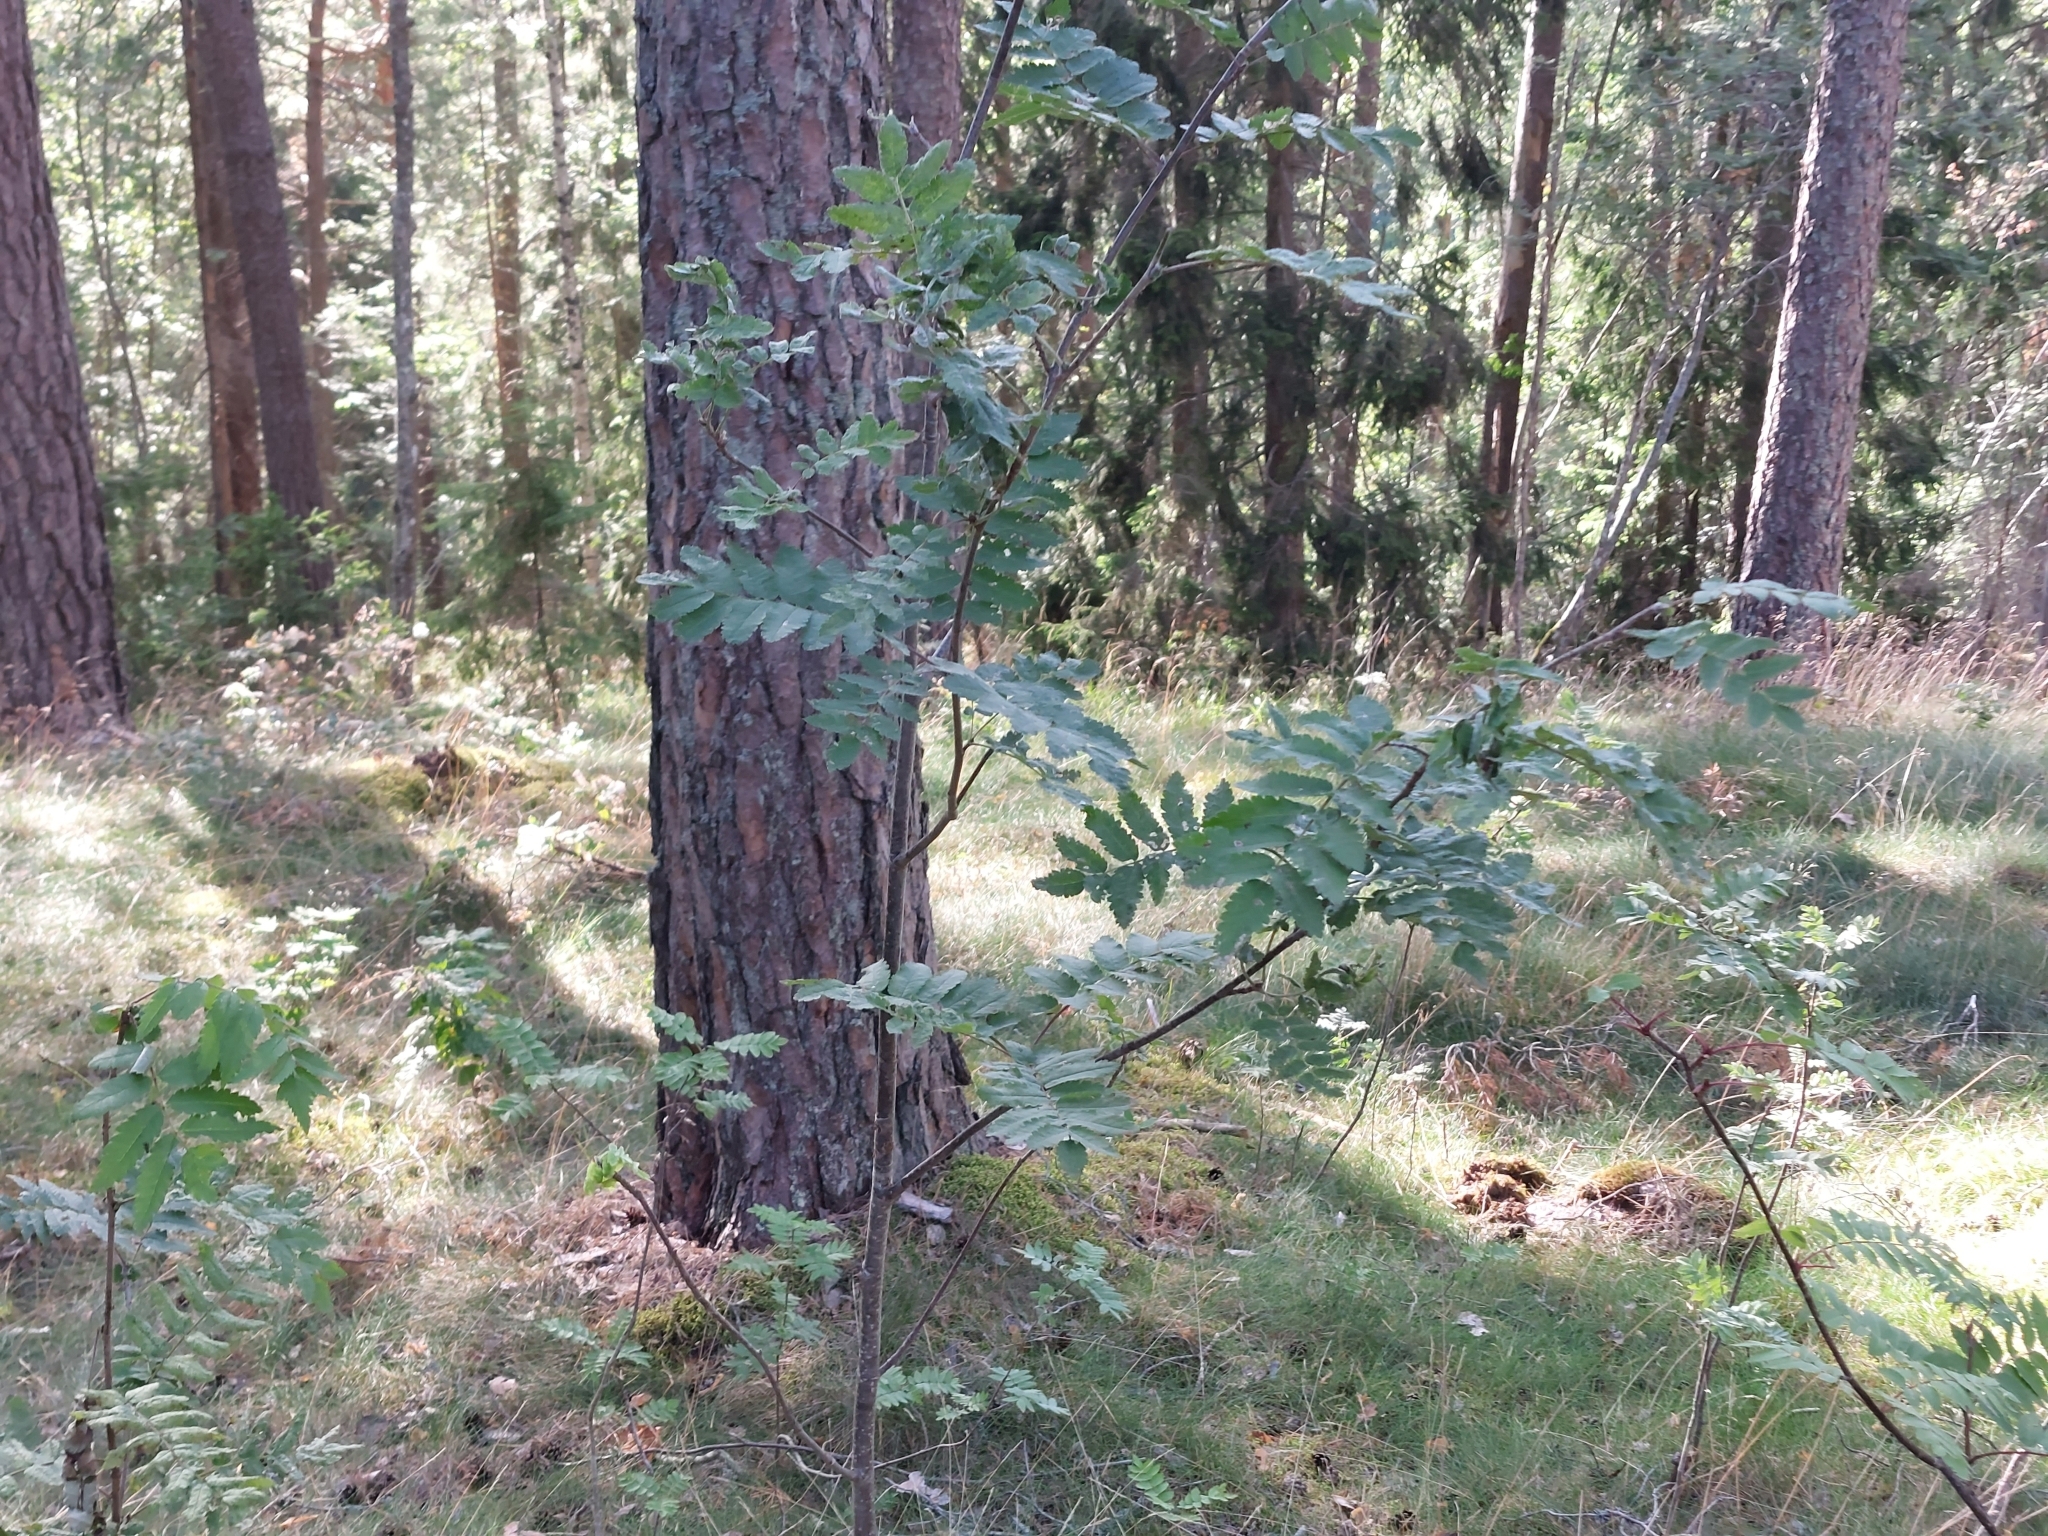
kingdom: Plantae
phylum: Tracheophyta
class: Magnoliopsida
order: Rosales
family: Rosaceae
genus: Sorbus
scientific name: Sorbus aucuparia
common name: Rowan
